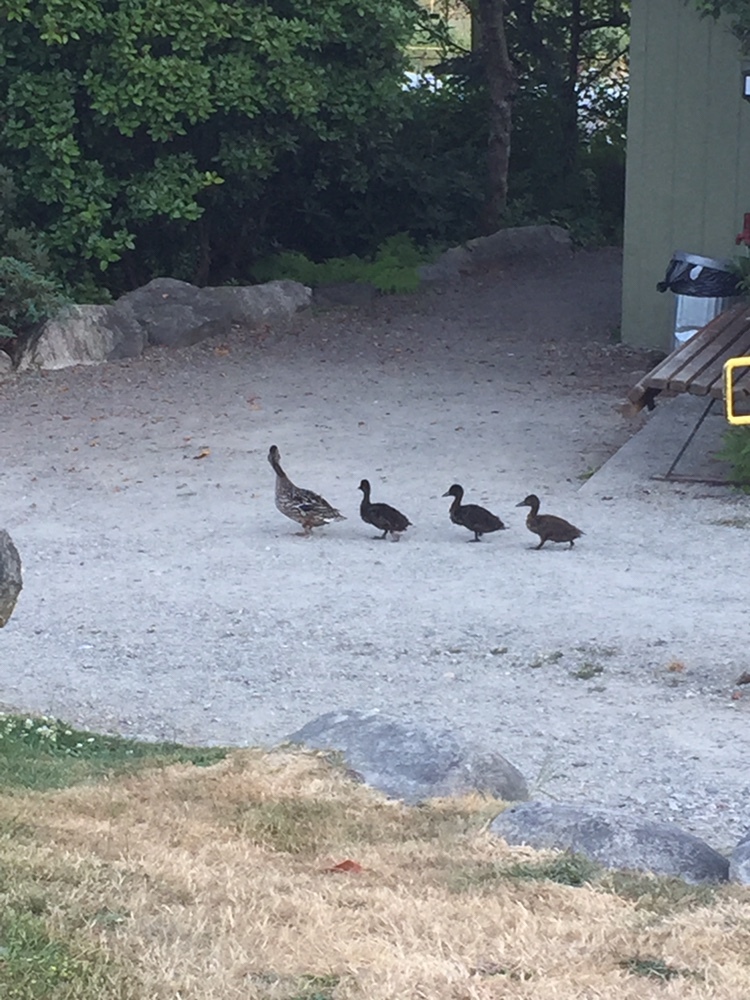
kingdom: Animalia
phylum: Chordata
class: Aves
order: Anseriformes
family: Anatidae
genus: Anas
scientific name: Anas platyrhynchos
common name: Mallard
